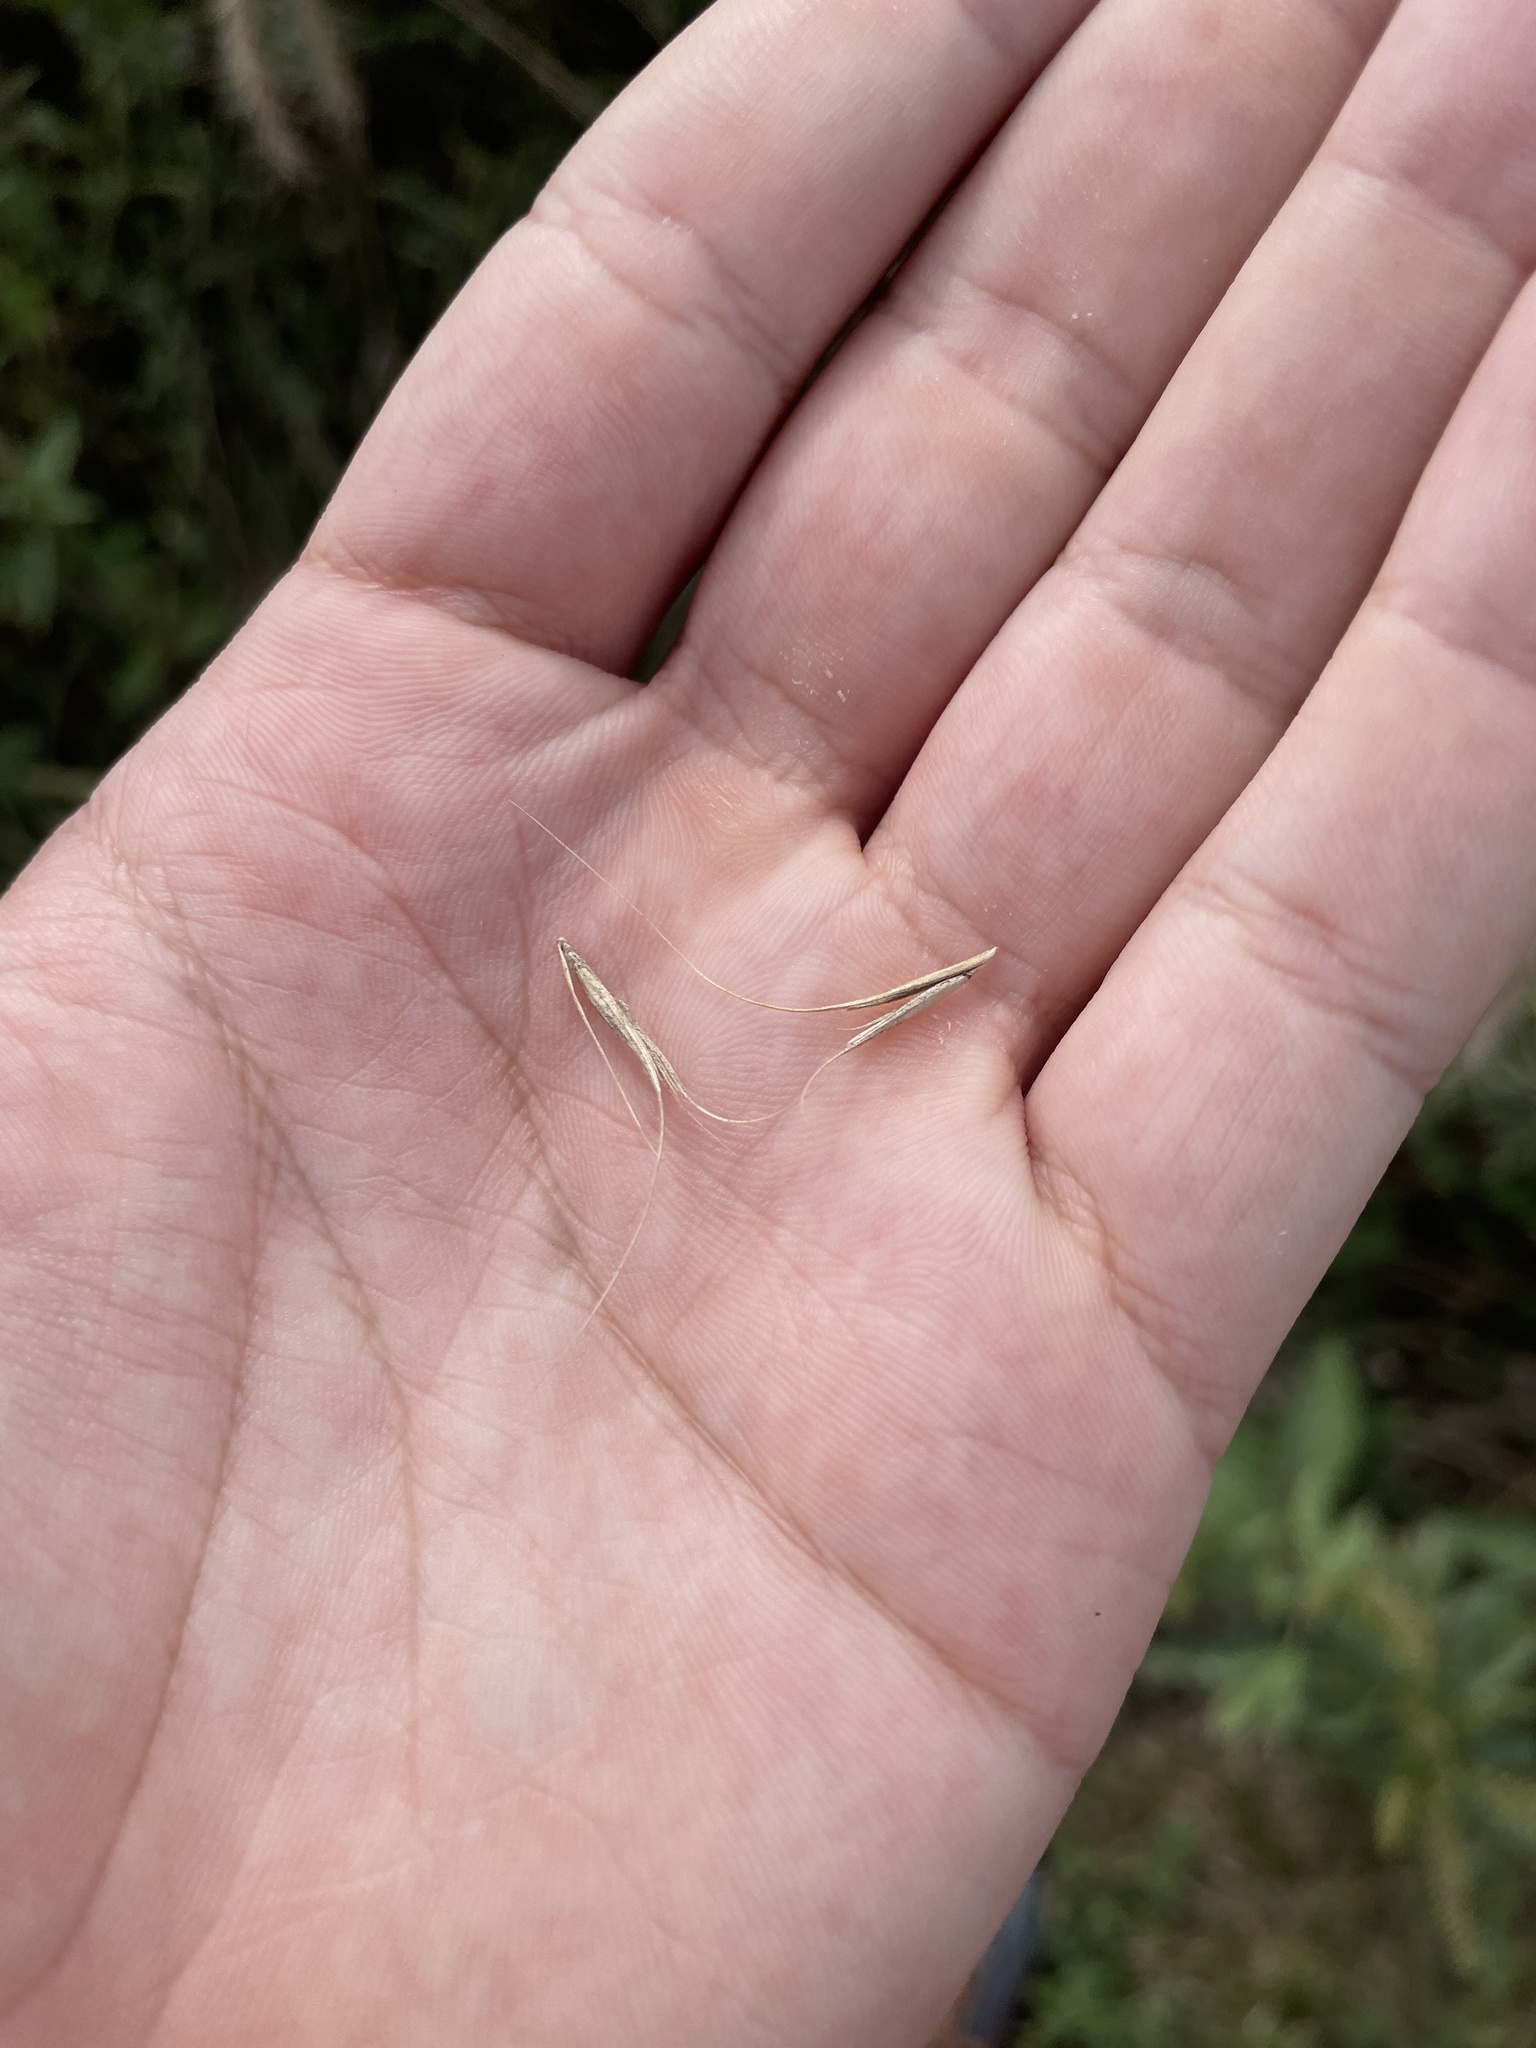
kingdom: Plantae
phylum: Tracheophyta
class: Liliopsida
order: Poales
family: Poaceae
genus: Elymus
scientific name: Elymus canadensis
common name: Canada wild rye
